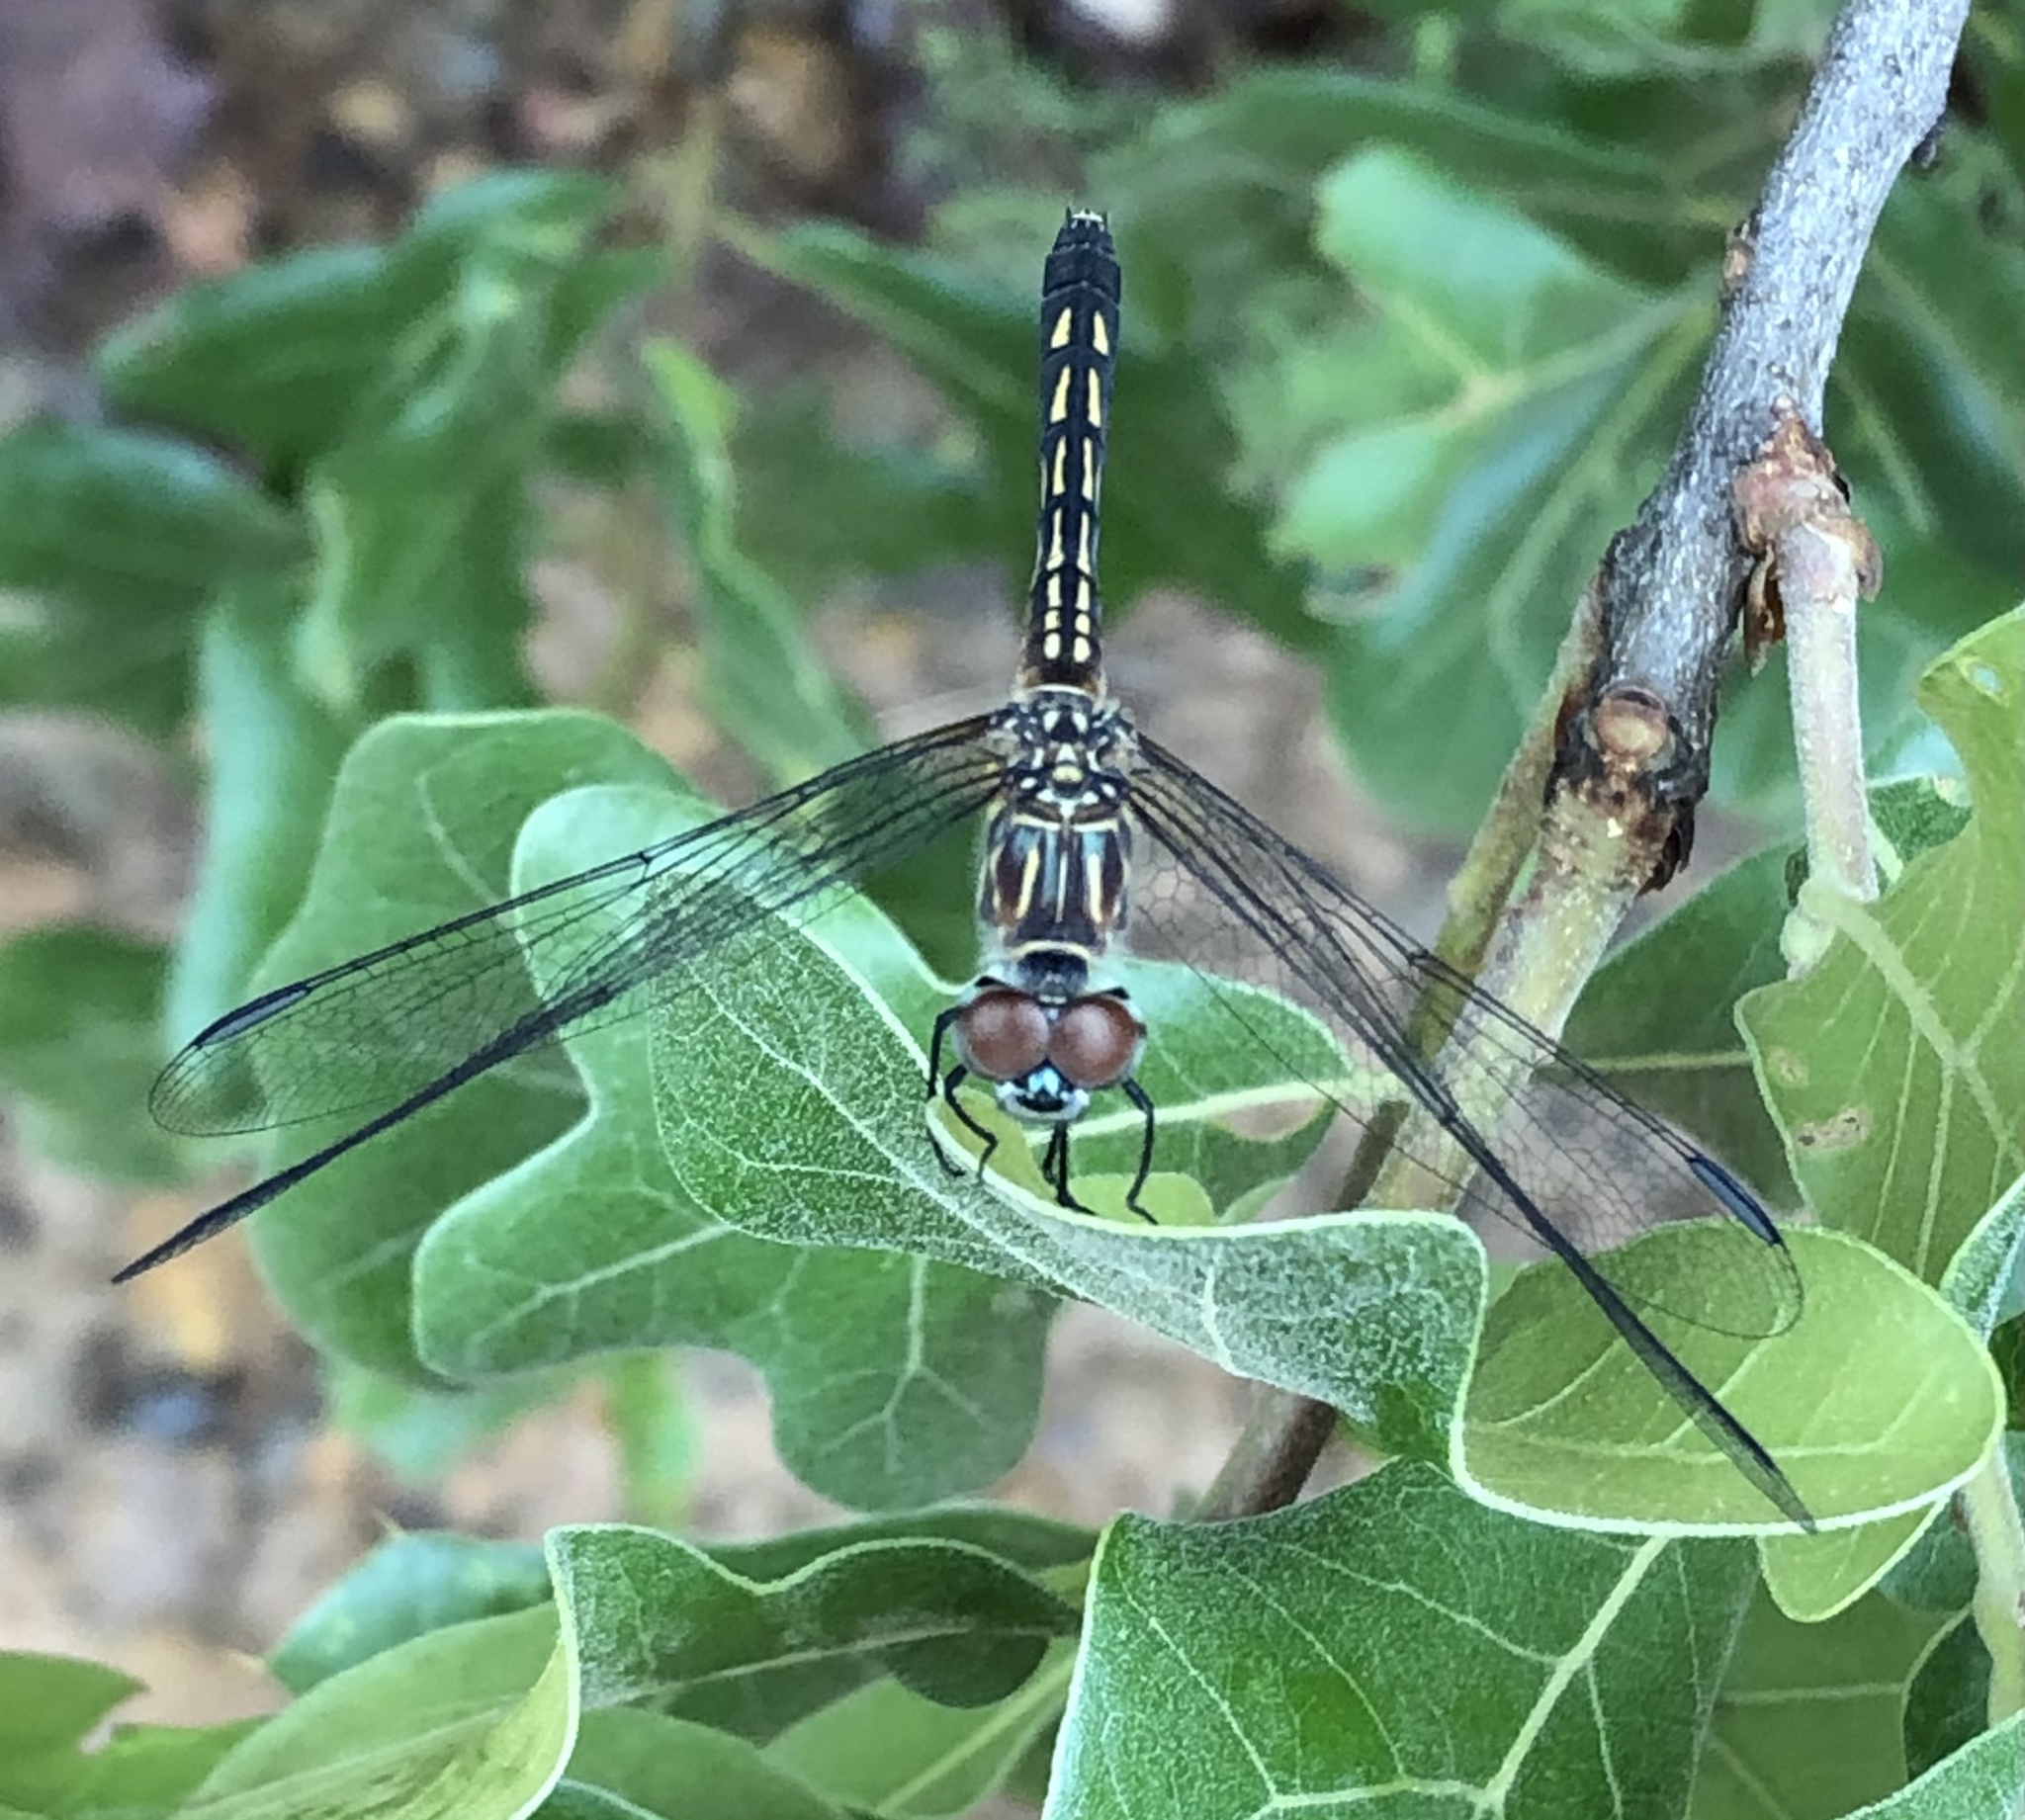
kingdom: Animalia
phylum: Arthropoda
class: Insecta
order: Odonata
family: Libellulidae
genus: Pachydiplax
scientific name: Pachydiplax longipennis
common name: Blue dasher
